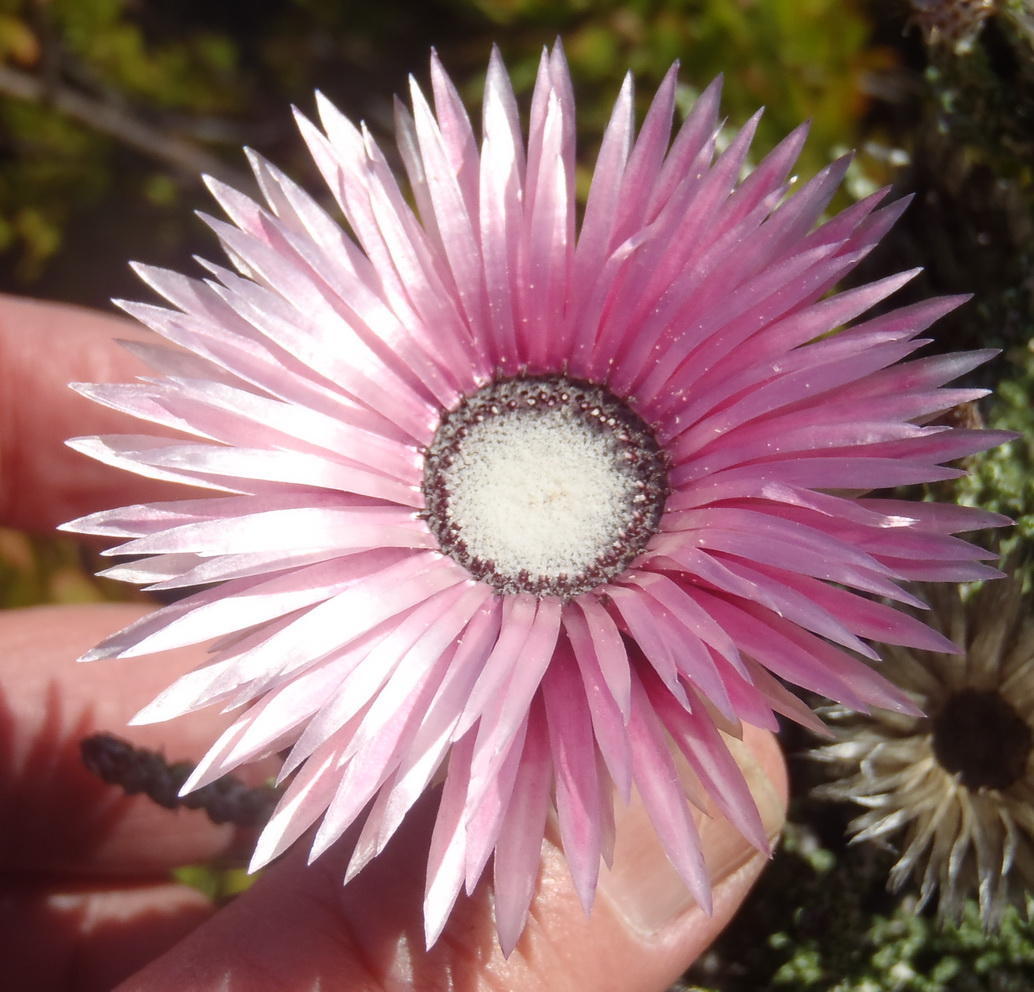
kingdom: Plantae
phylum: Tracheophyta
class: Magnoliopsida
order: Asterales
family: Asteraceae
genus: Phaenocoma
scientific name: Phaenocoma prolifera
